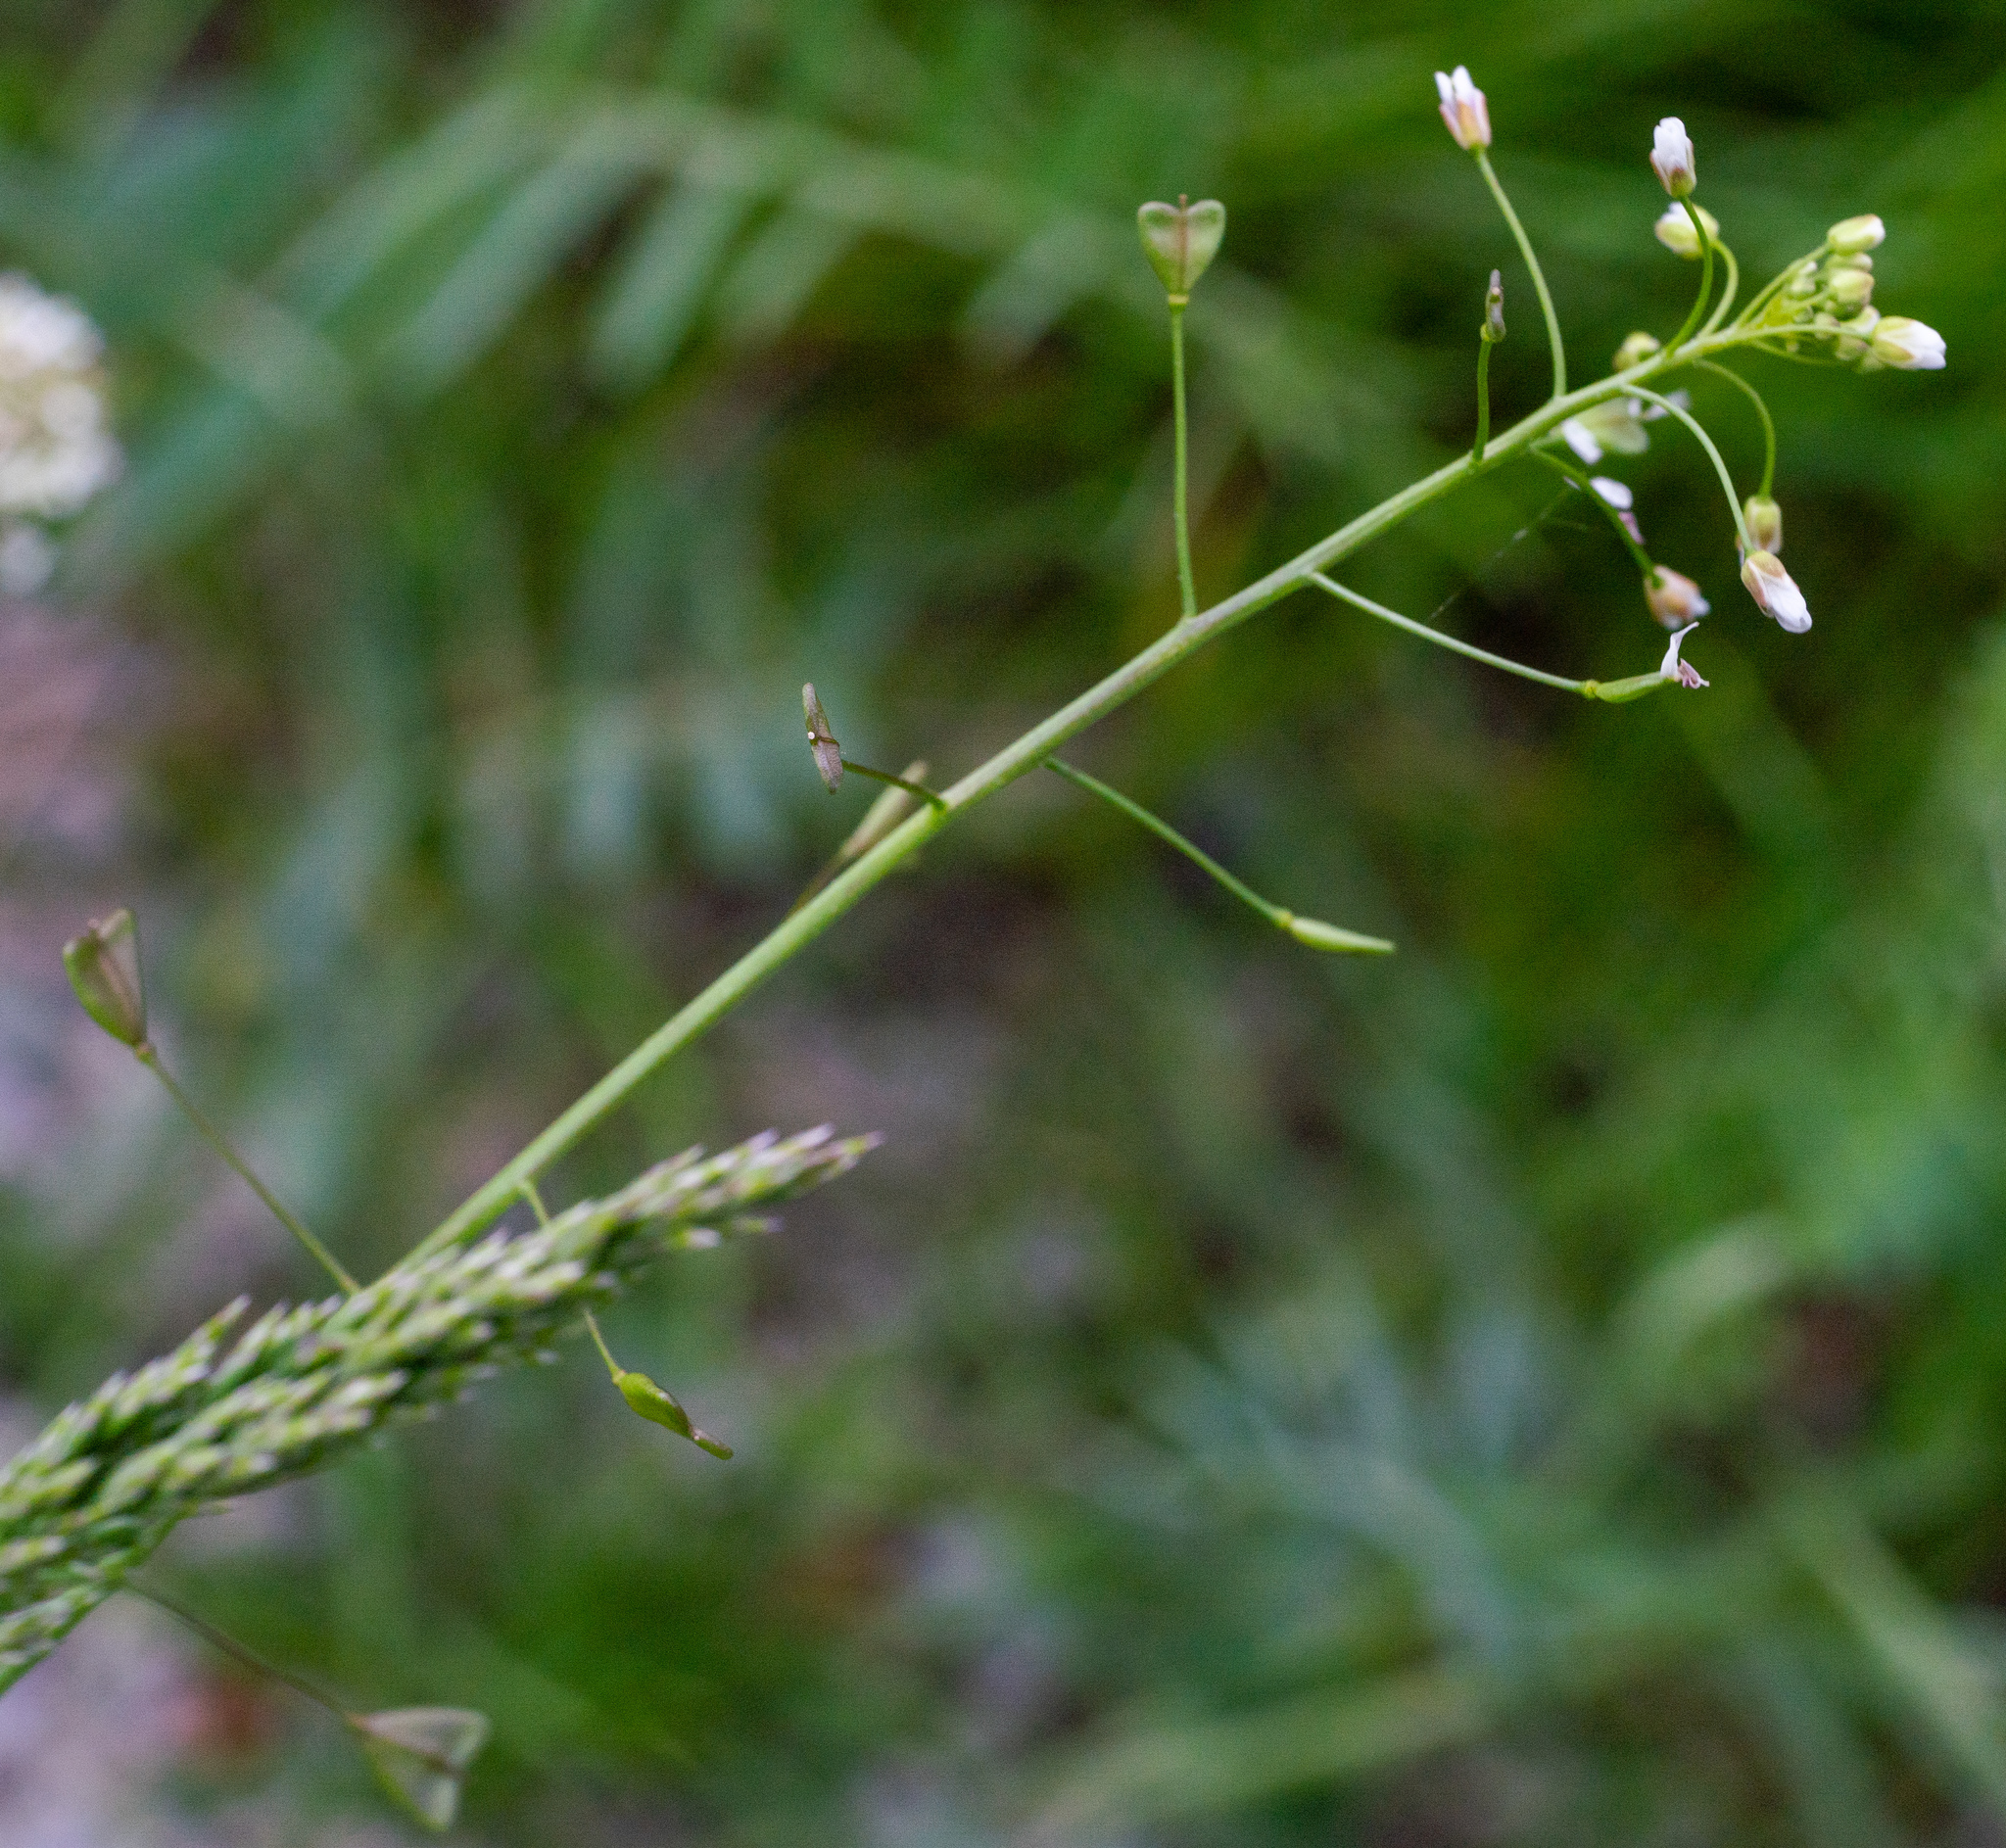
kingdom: Plantae
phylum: Tracheophyta
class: Magnoliopsida
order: Brassicales
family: Brassicaceae
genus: Capsella
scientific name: Capsella bursa-pastoris
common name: Shepherd's purse
